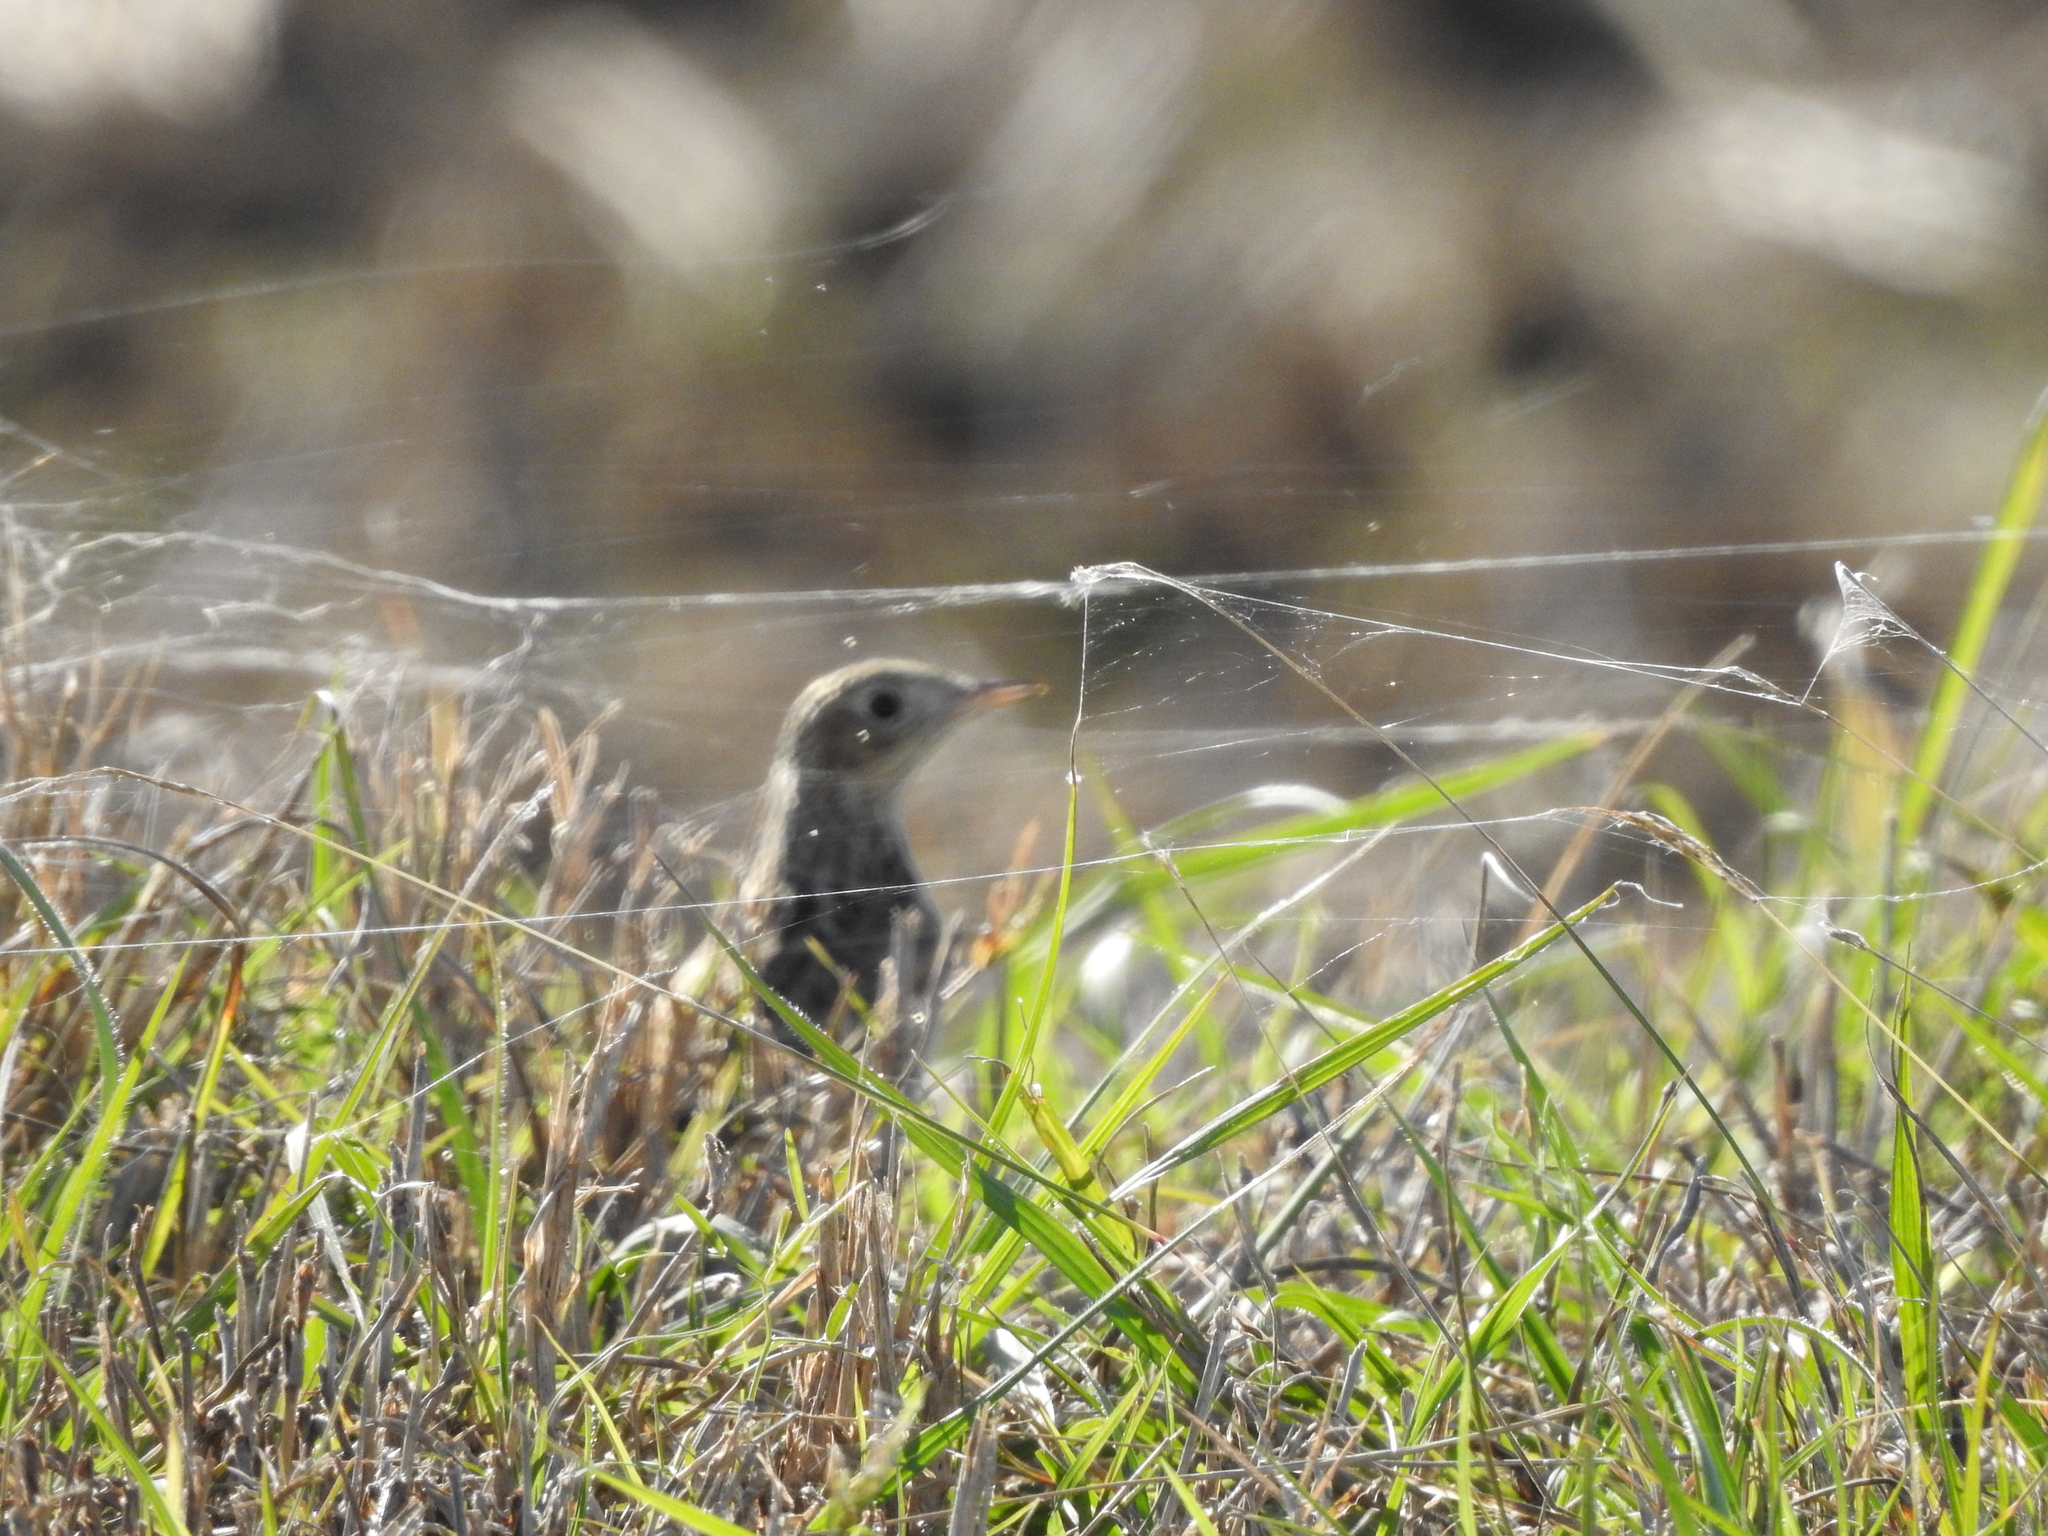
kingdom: Animalia
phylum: Chordata
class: Aves
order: Passeriformes
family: Motacillidae
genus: Anthus
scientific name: Anthus spragueii
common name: Sprague's pipit
